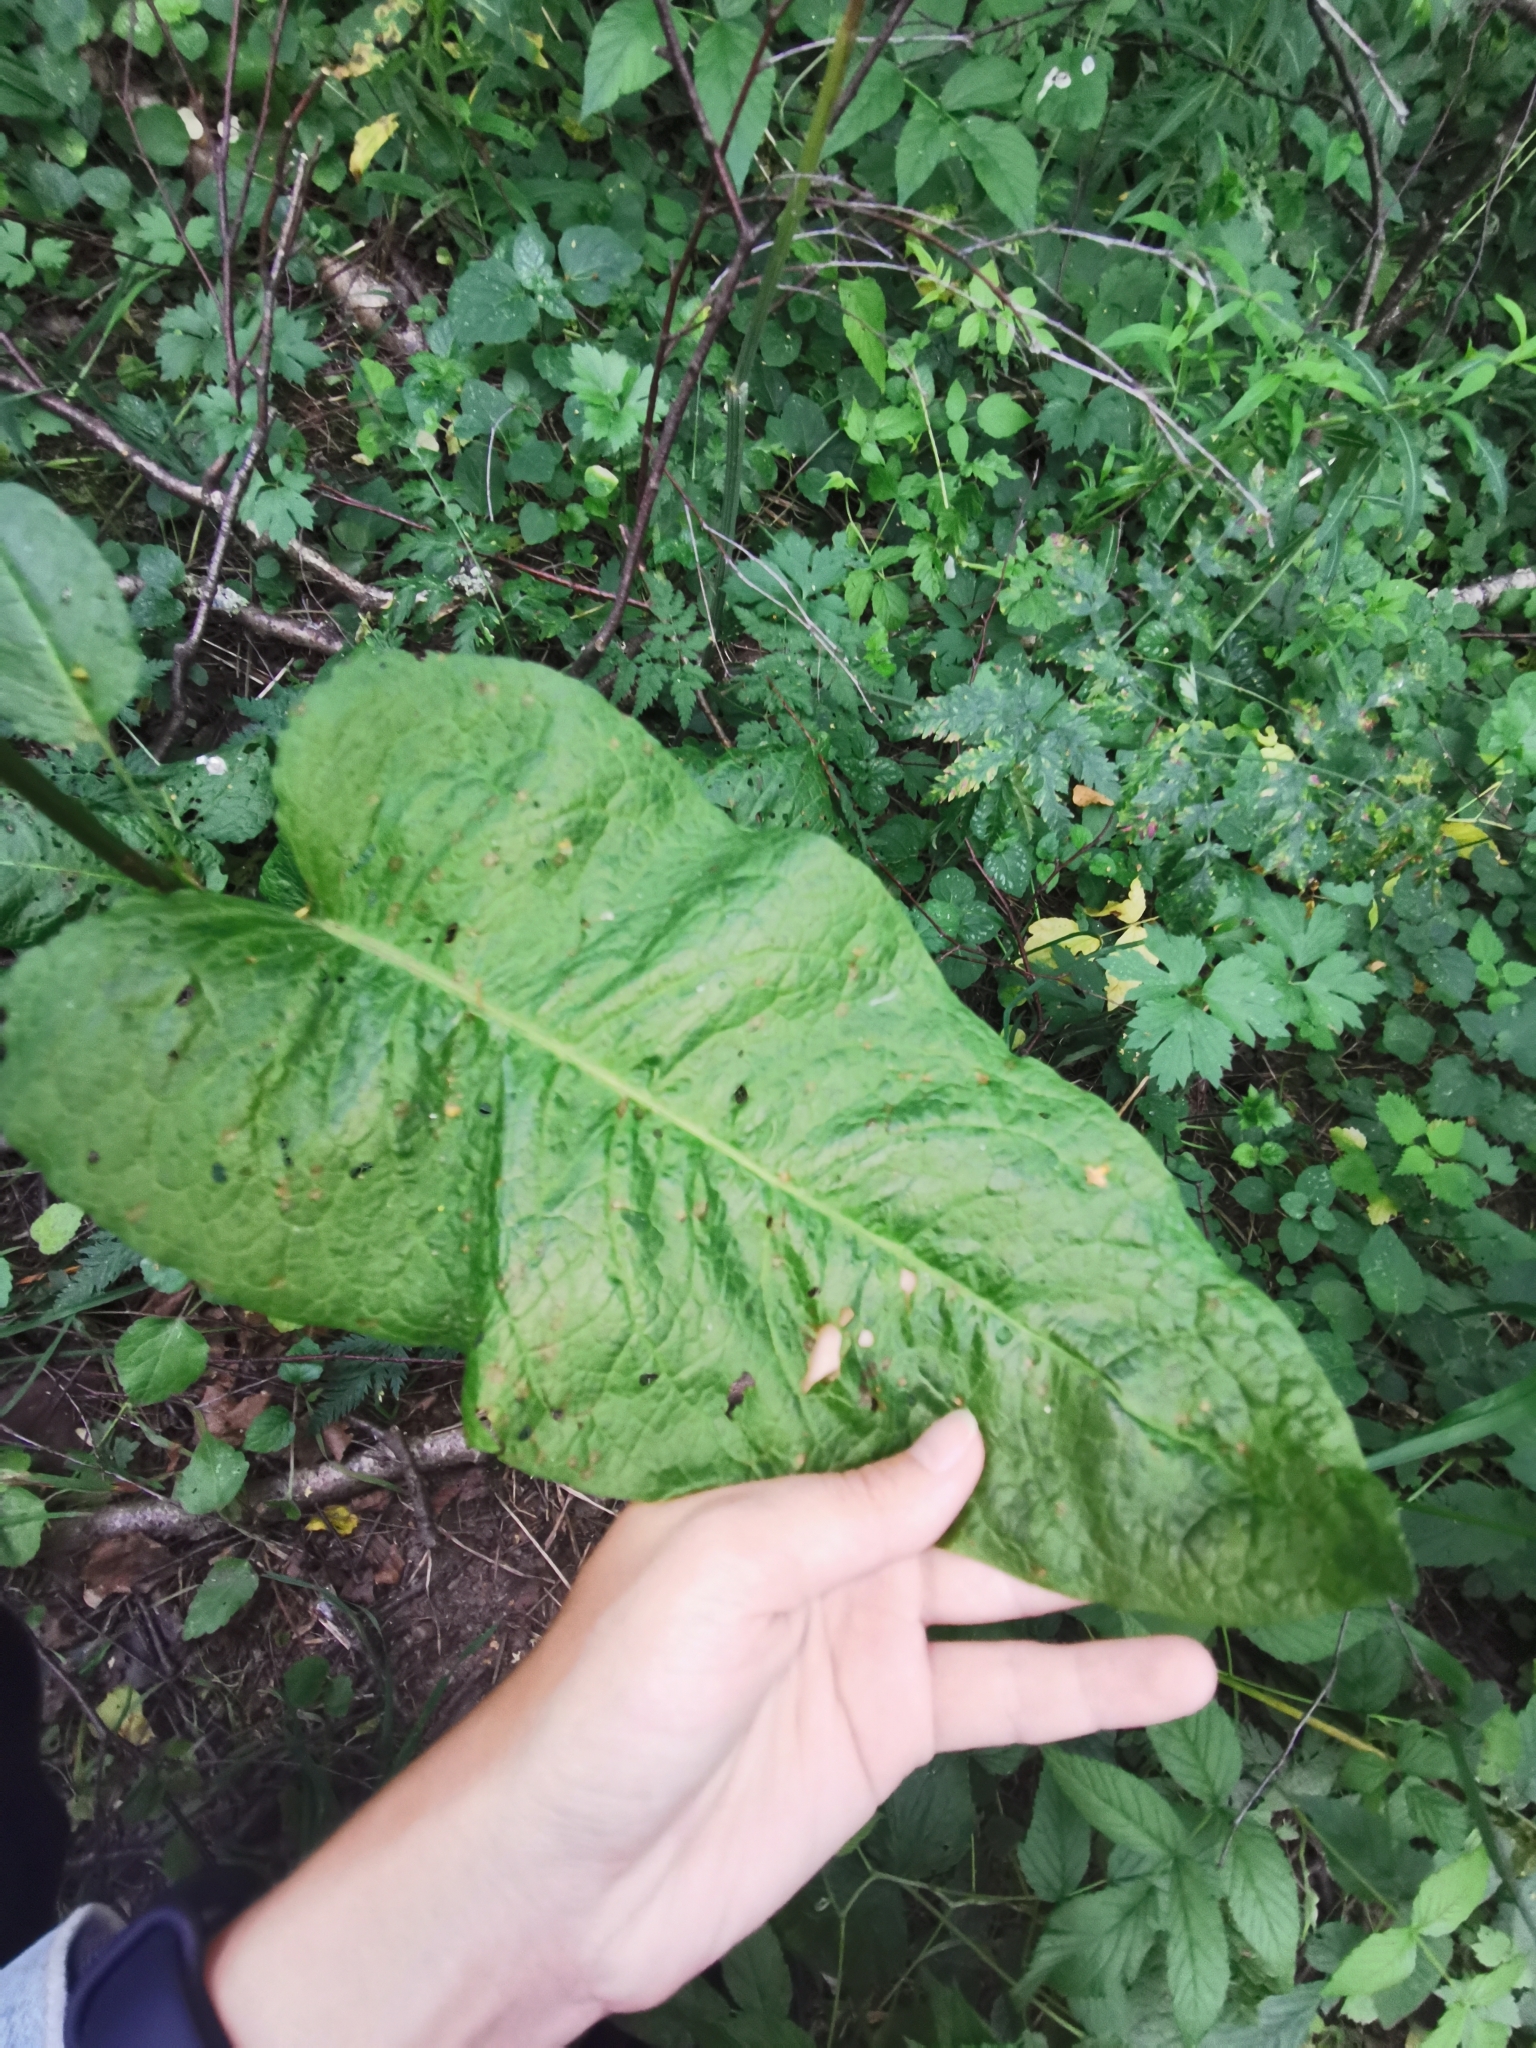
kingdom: Plantae
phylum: Tracheophyta
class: Magnoliopsida
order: Caryophyllales
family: Polygonaceae
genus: Rumex
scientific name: Rumex obtusifolius
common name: Bitter dock
